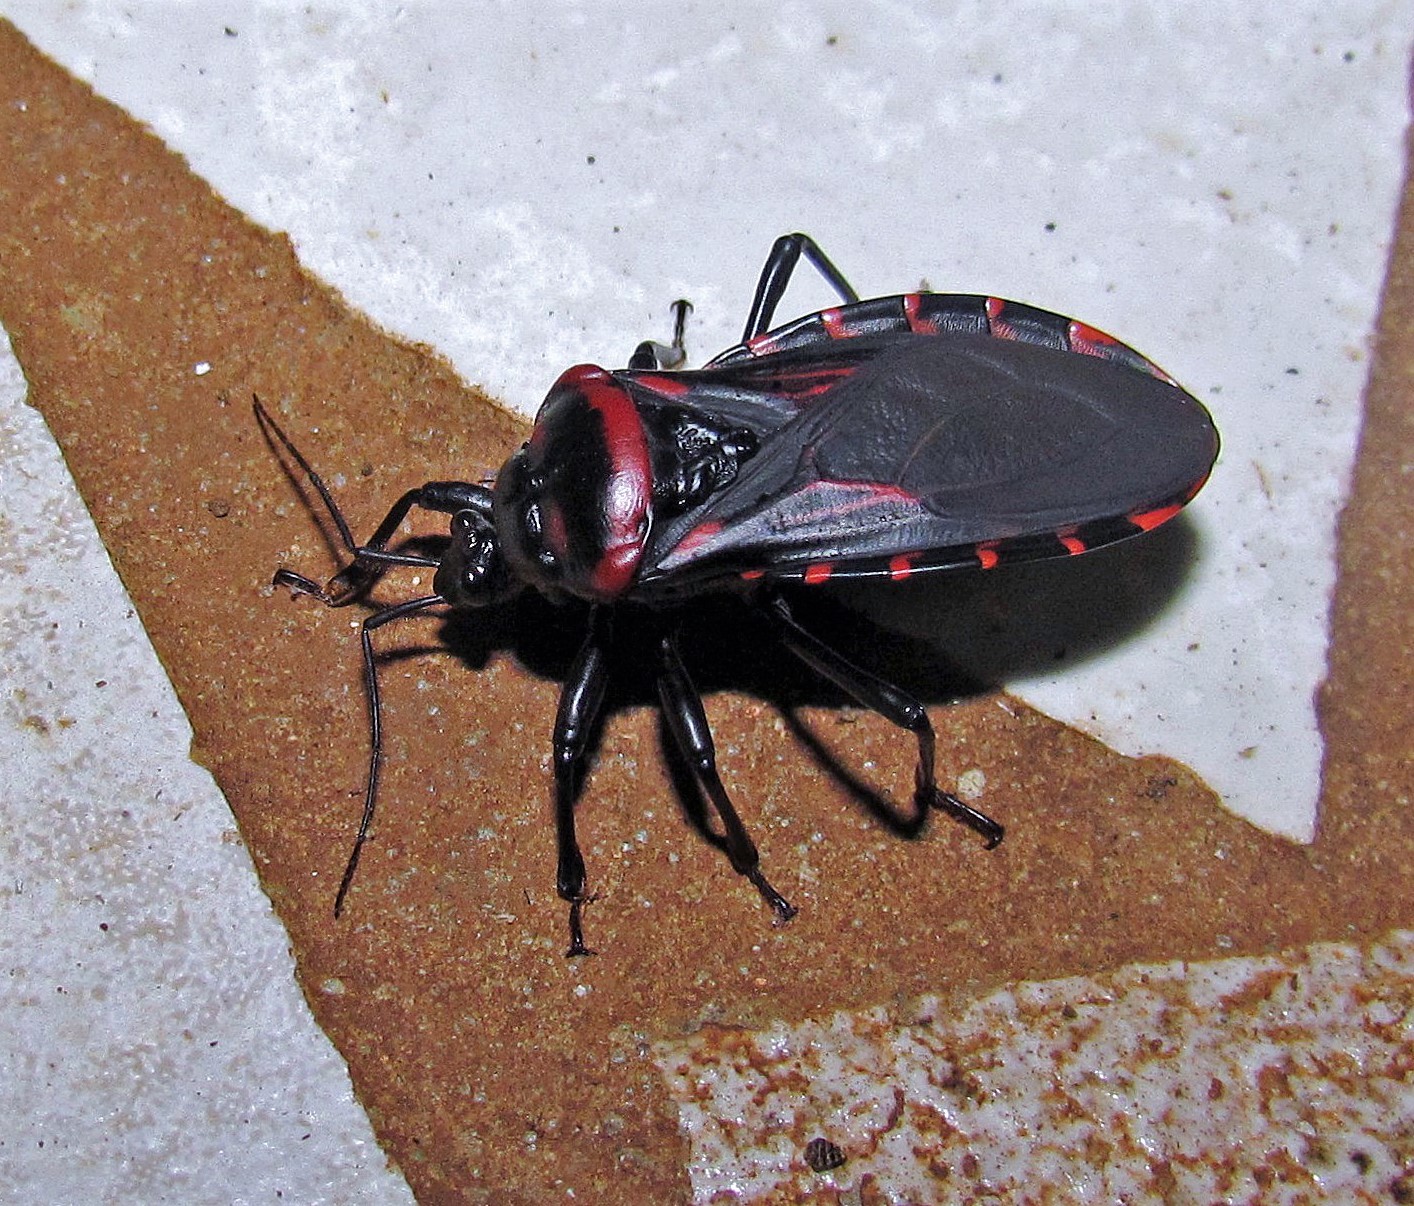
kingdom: Animalia
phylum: Arthropoda
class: Insecta
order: Hemiptera
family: Reduviidae
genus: Brontostoma
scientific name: Brontostoma colossus
